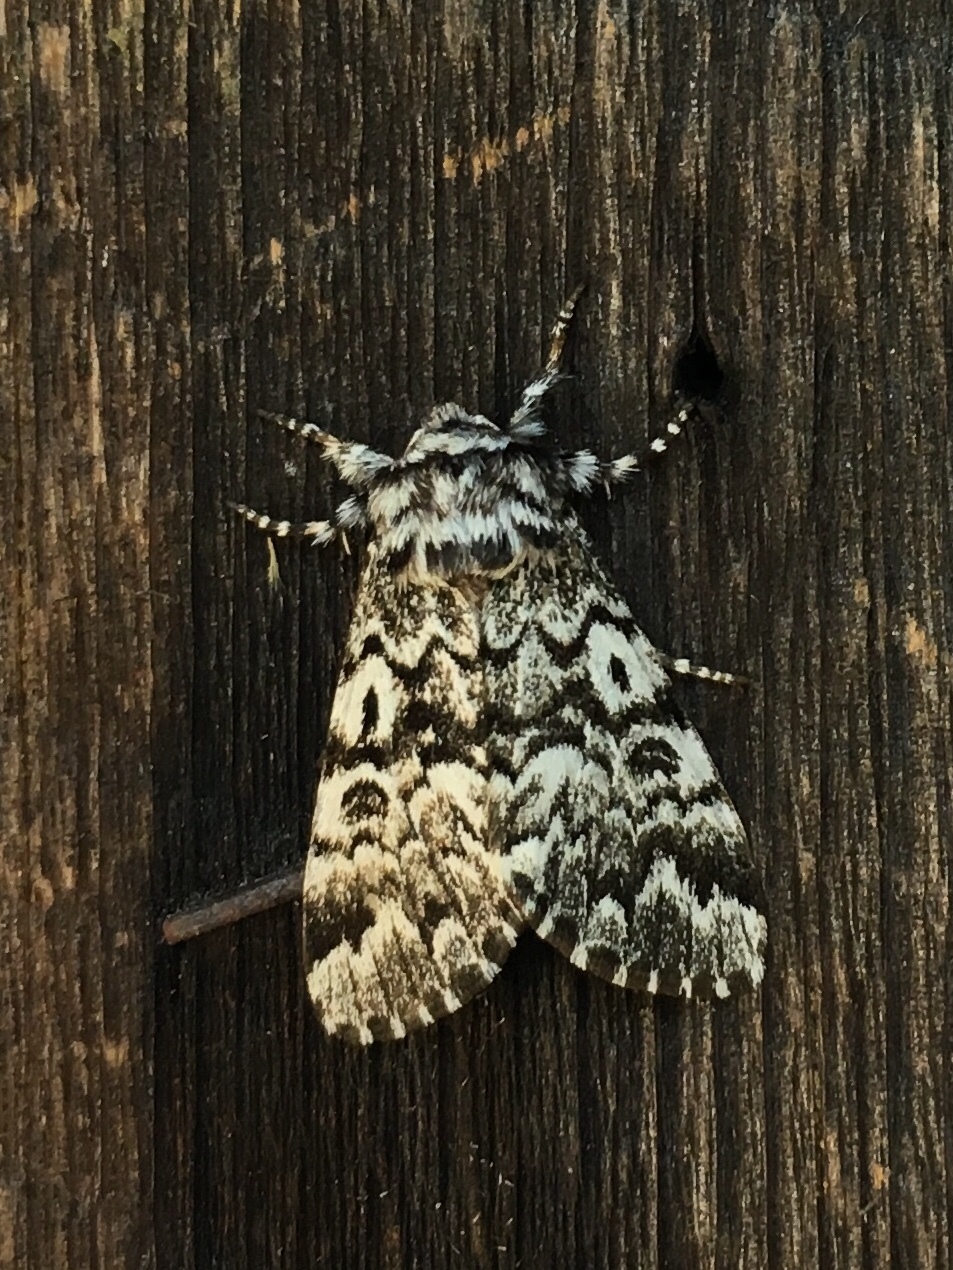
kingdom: Animalia
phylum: Arthropoda
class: Insecta
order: Lepidoptera
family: Noctuidae
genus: Panthea
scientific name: Panthea acronyctoides
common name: Black zigzag moth
